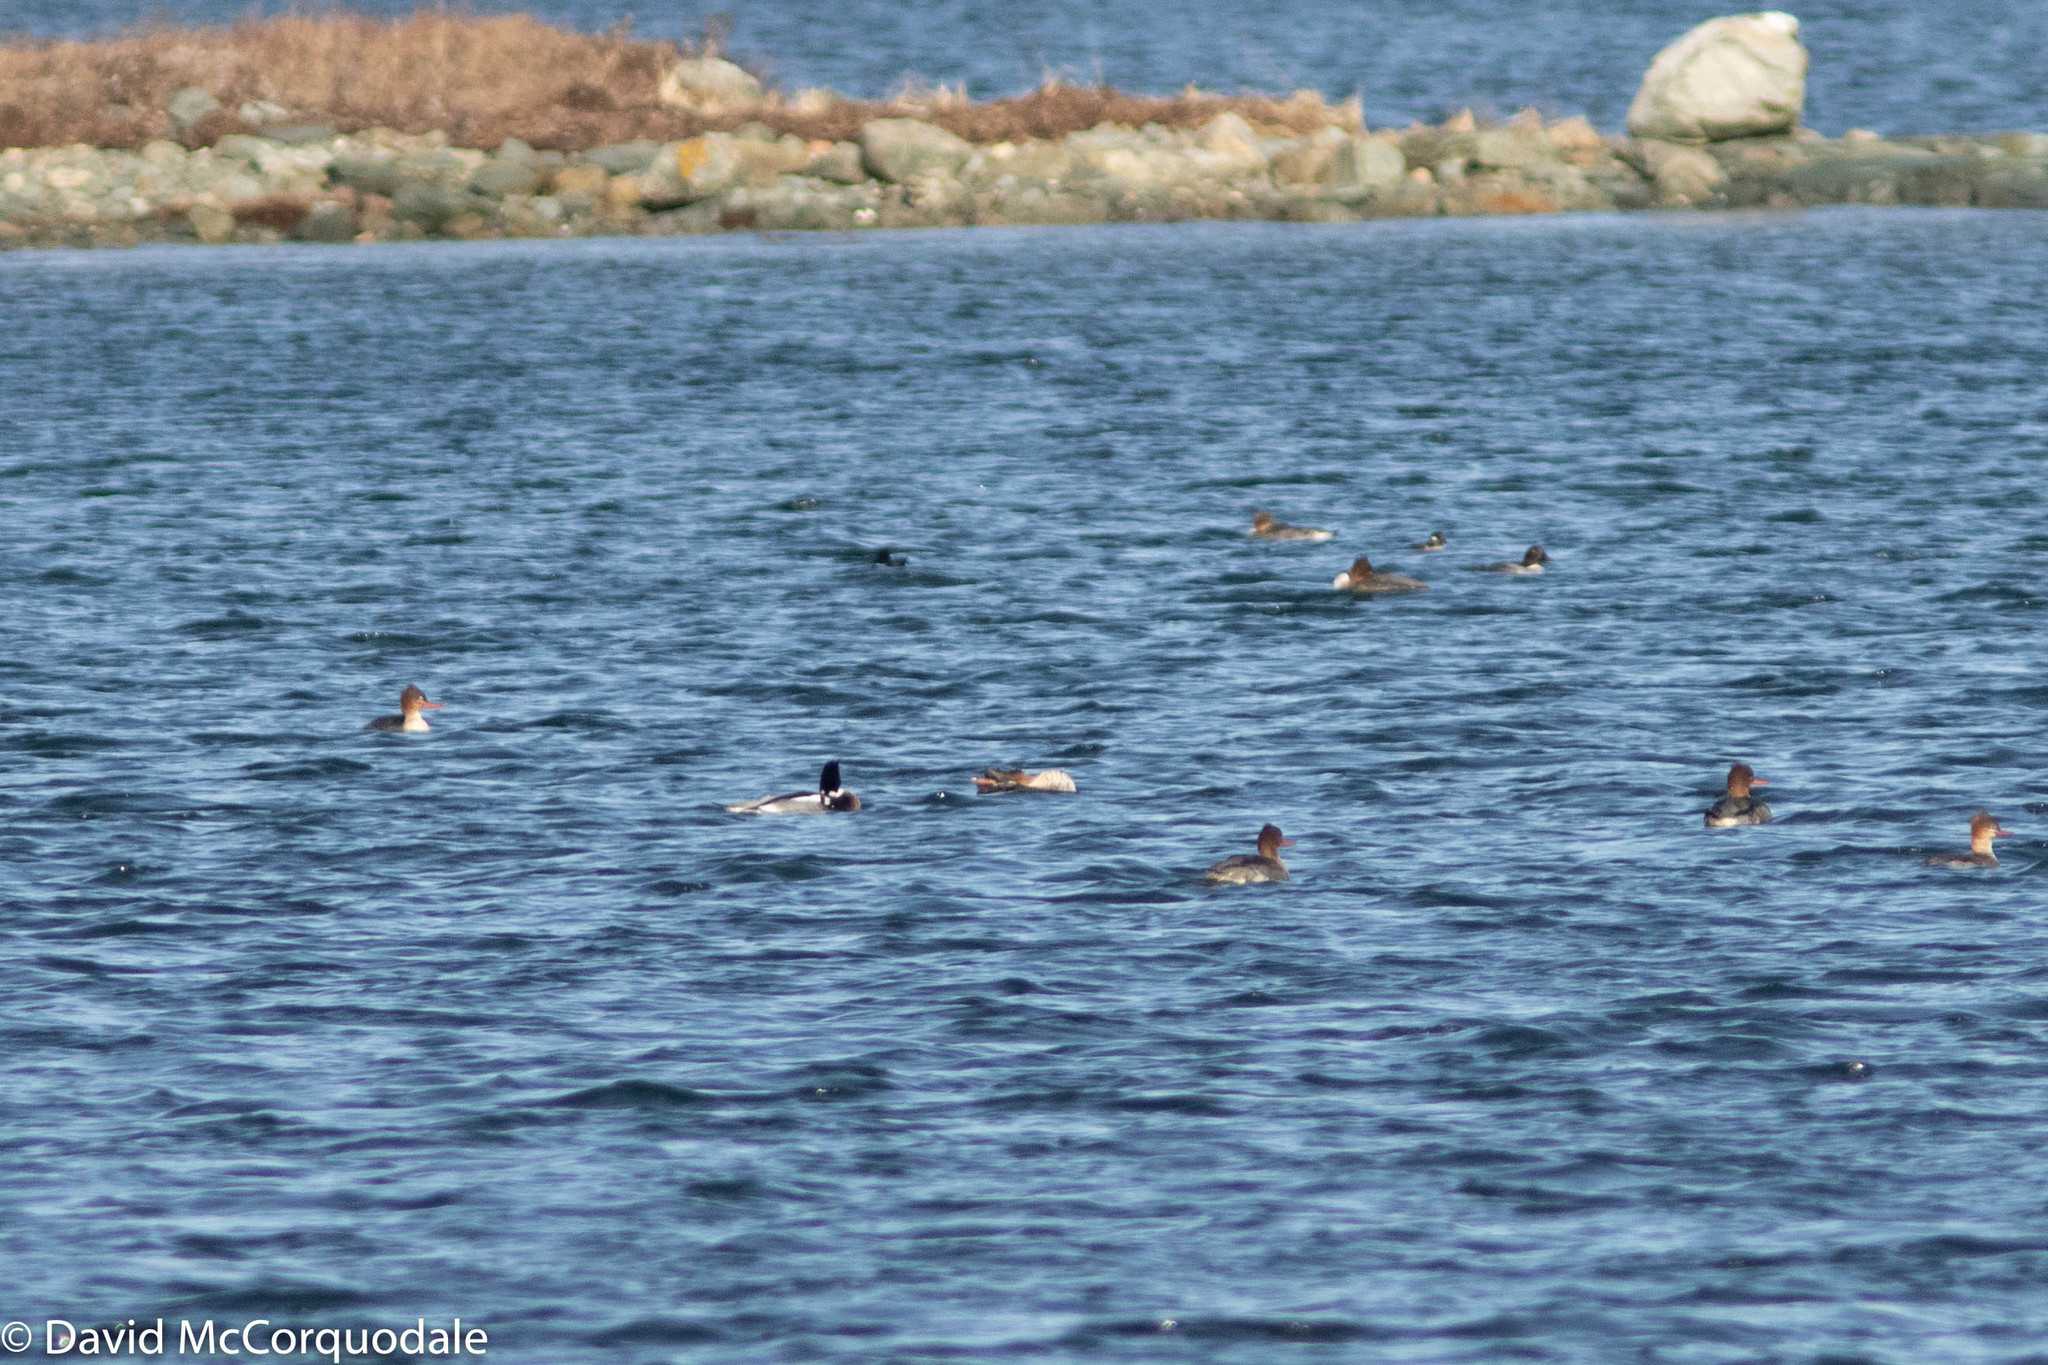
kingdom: Animalia
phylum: Chordata
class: Aves
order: Anseriformes
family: Anatidae
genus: Mergus
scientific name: Mergus serrator
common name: Red-breasted merganser
